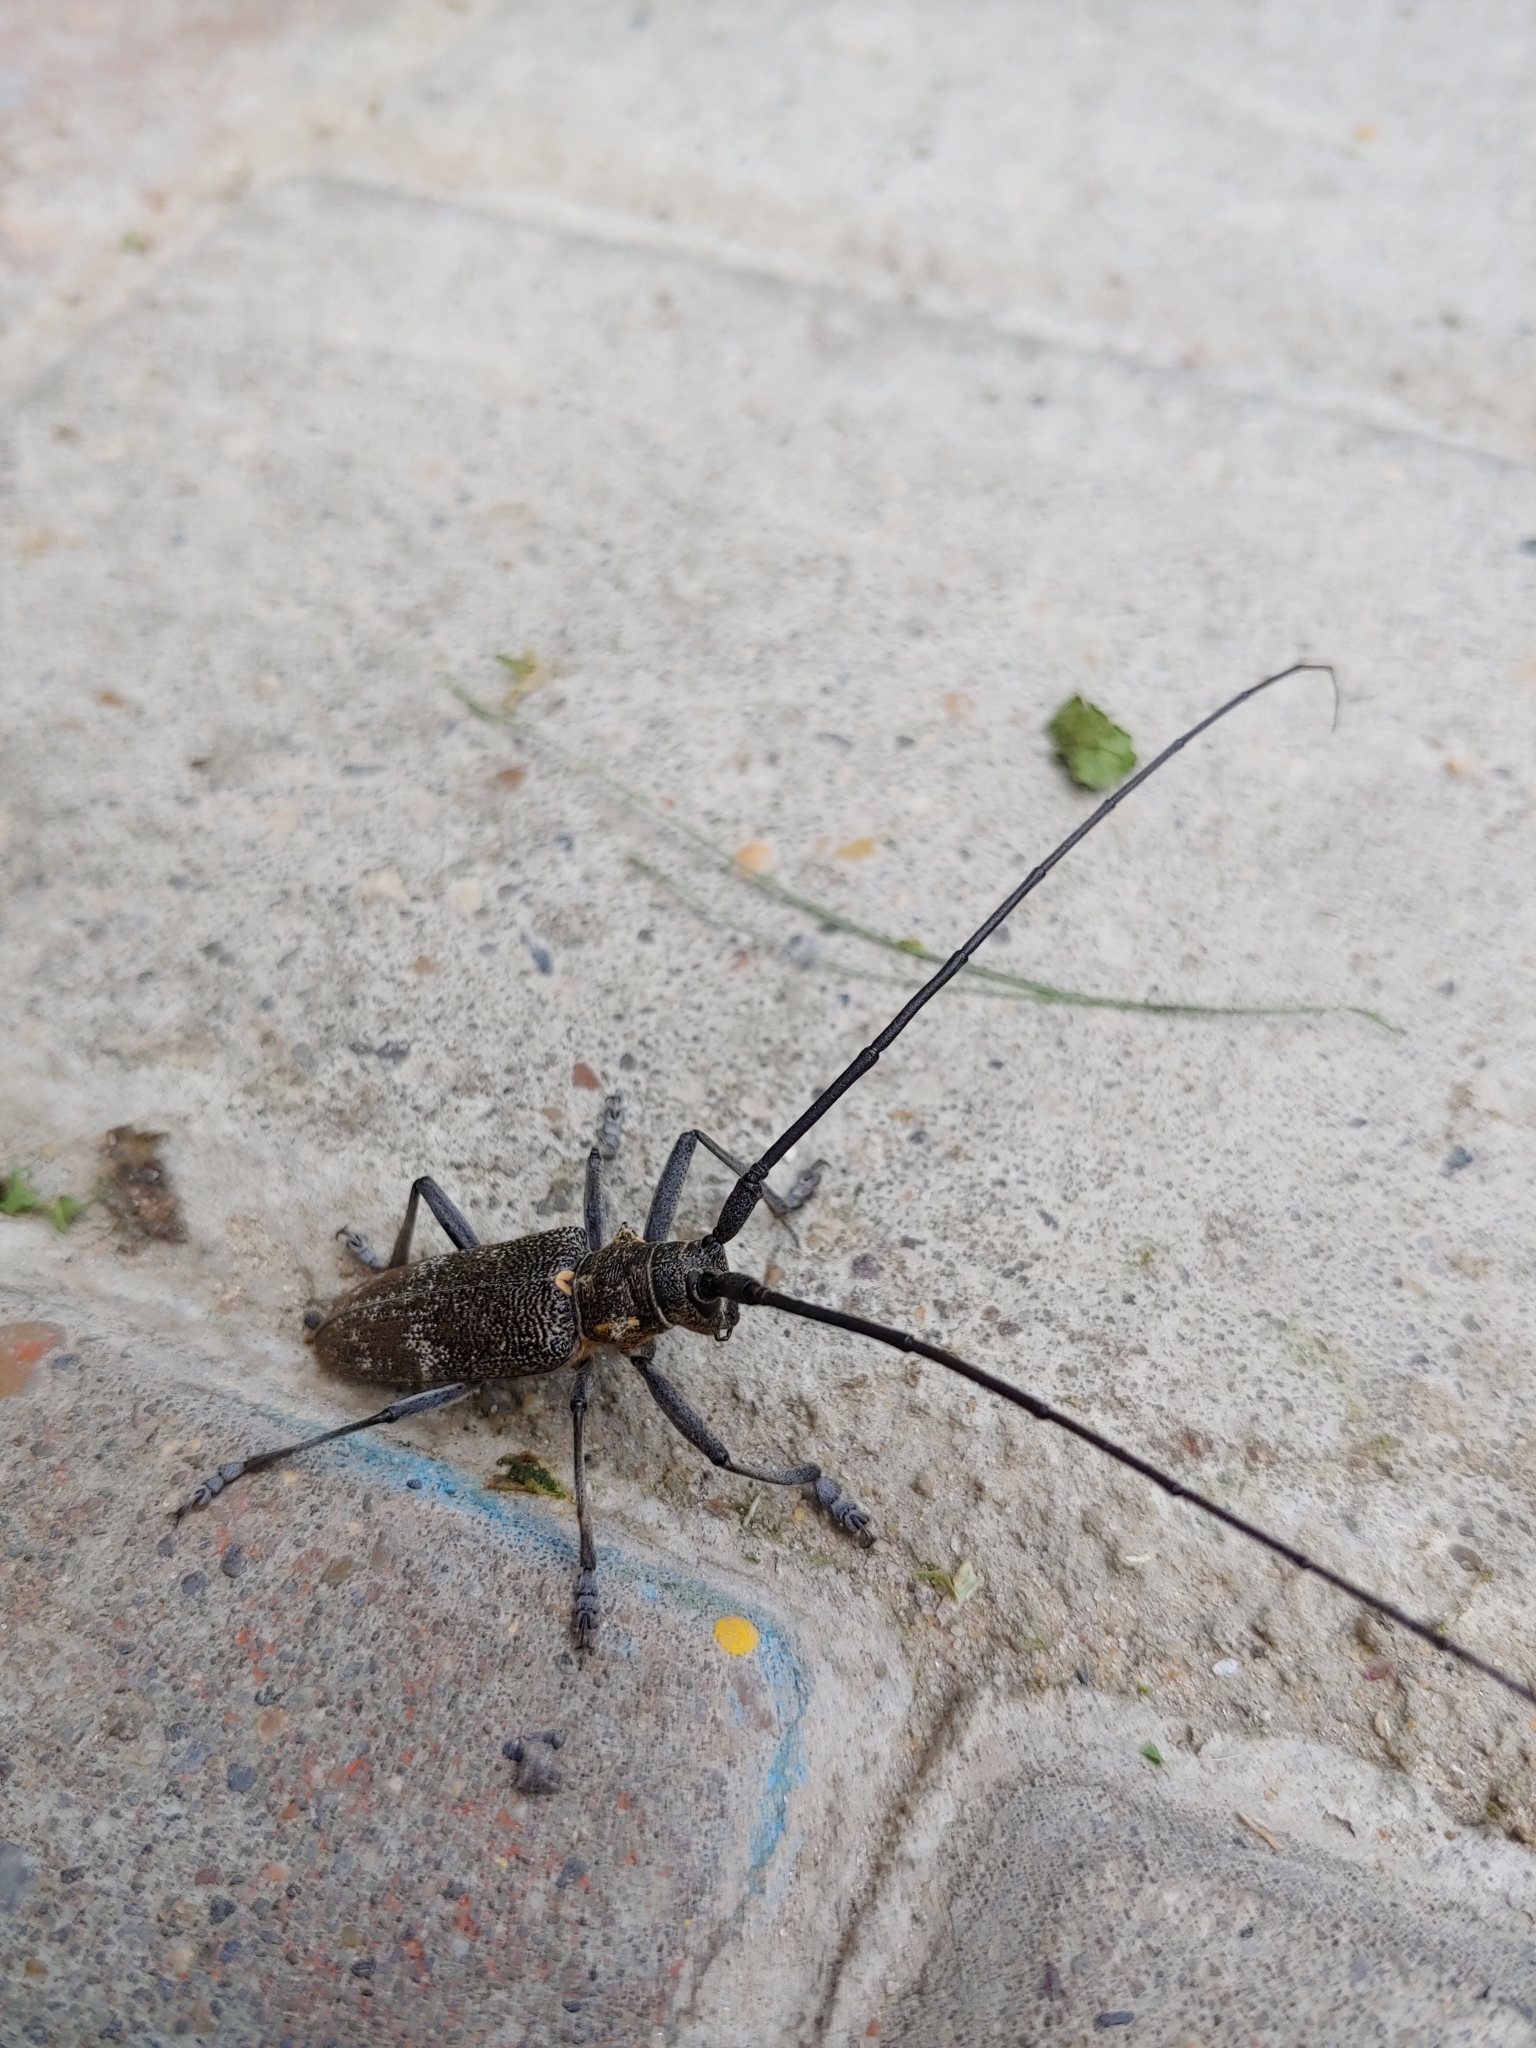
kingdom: Animalia
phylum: Arthropoda
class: Insecta
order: Coleoptera
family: Cerambycidae
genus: Monochamus
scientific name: Monochamus galloprovincialis
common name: Pine sawyer
